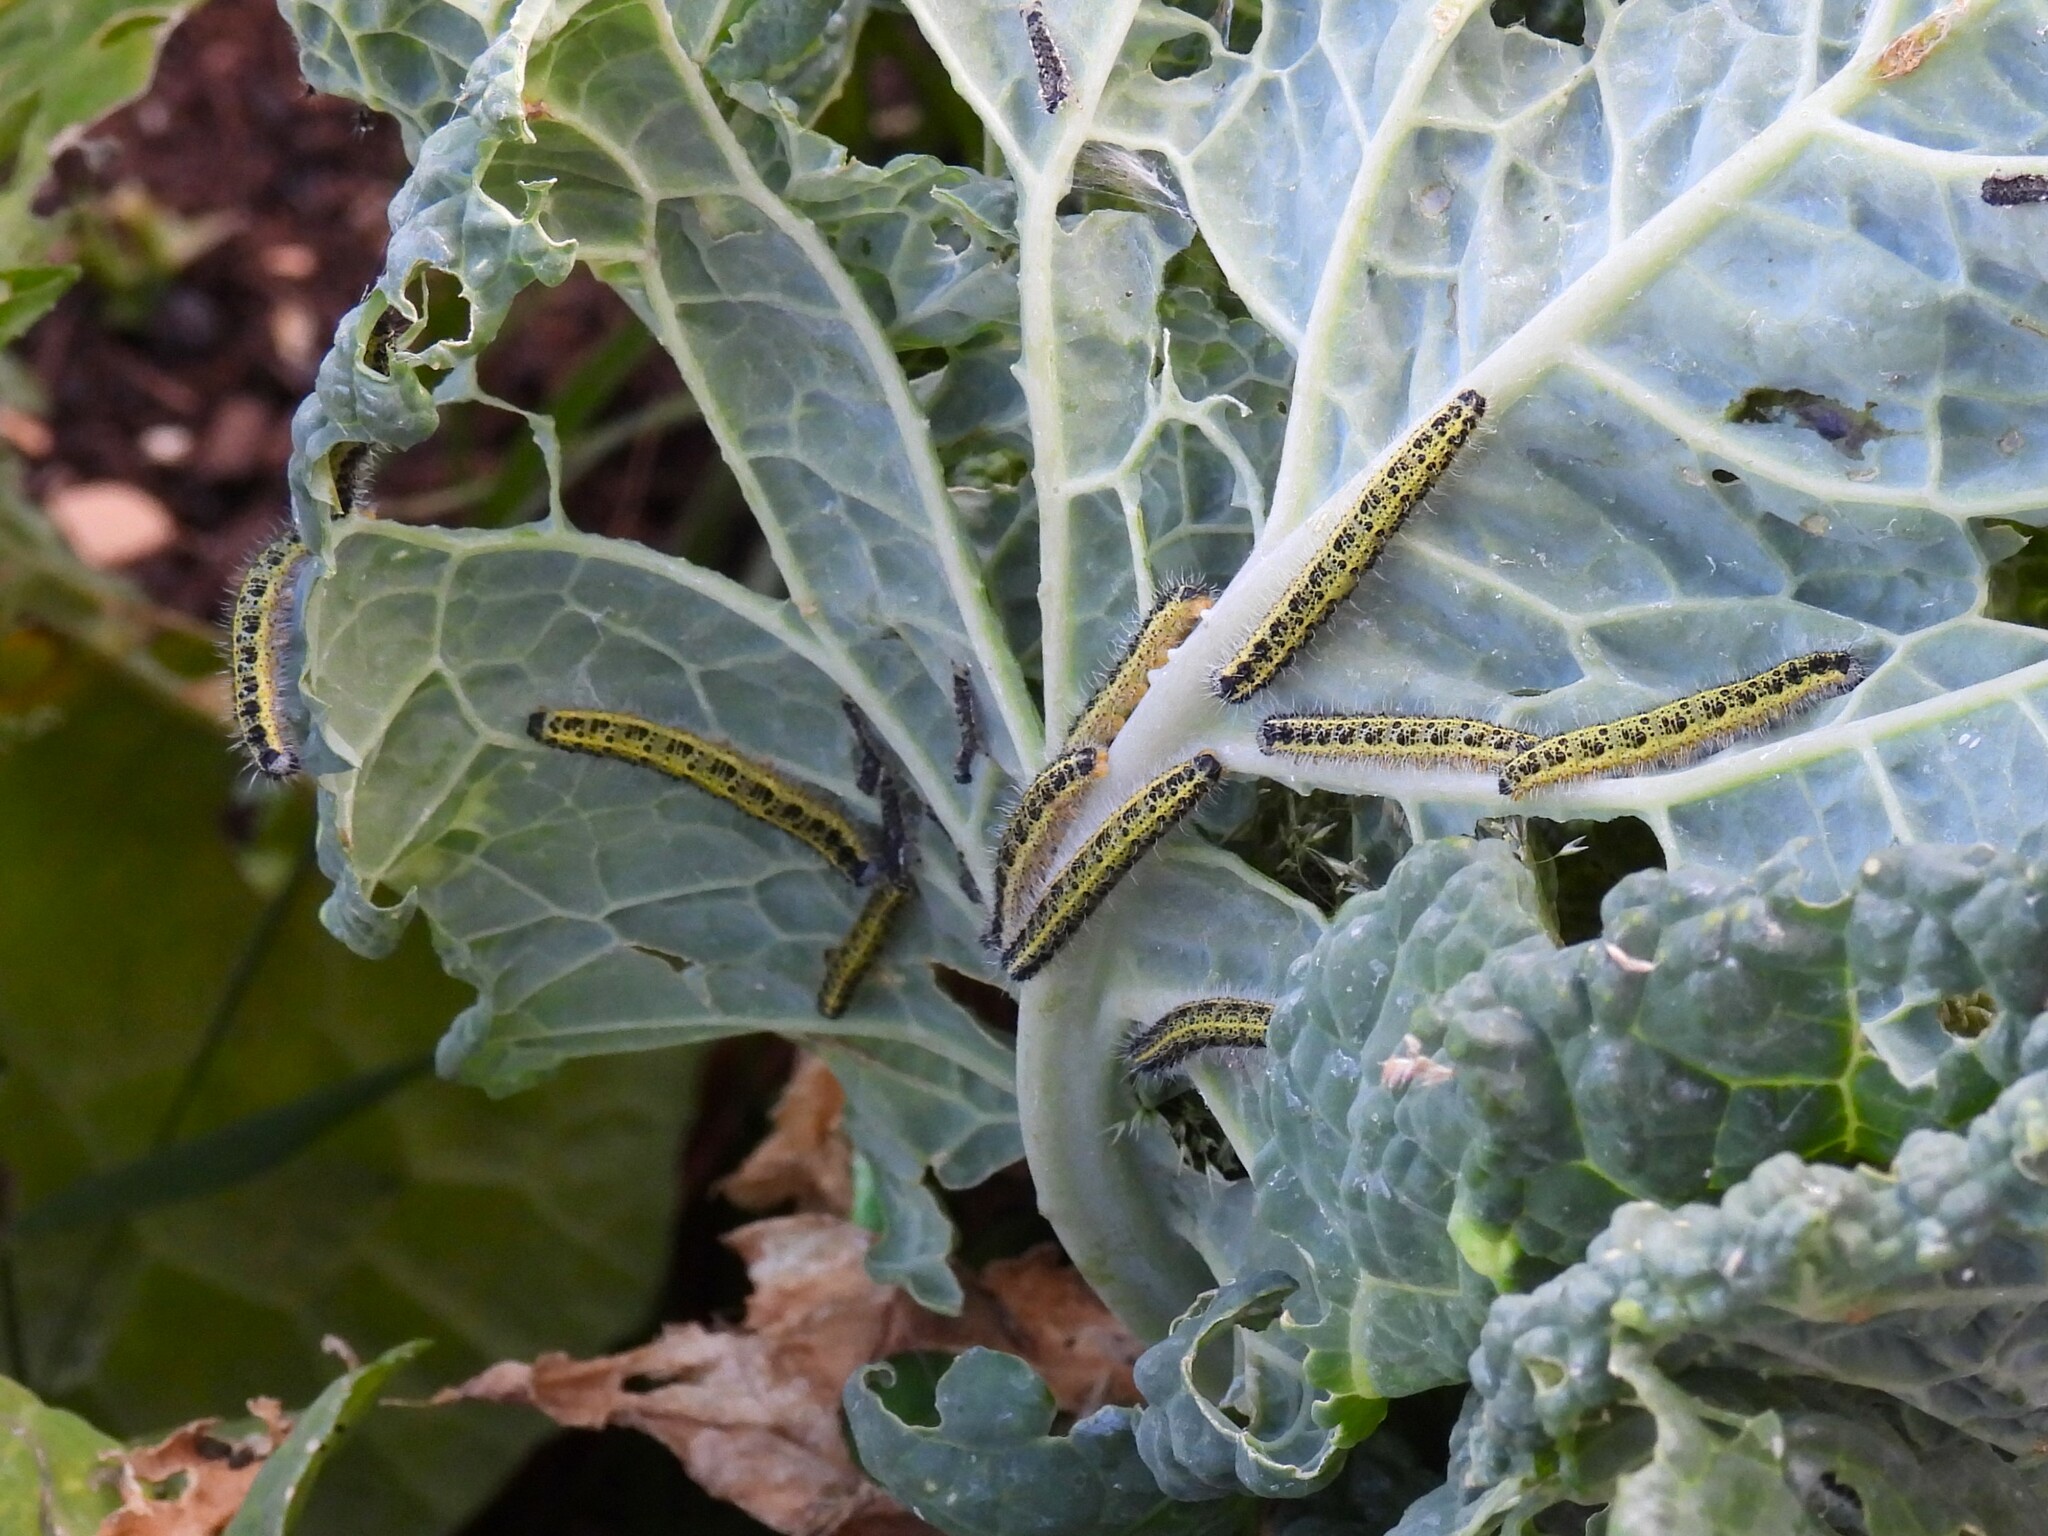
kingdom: Animalia
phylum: Arthropoda
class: Insecta
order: Lepidoptera
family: Pieridae
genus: Pieris
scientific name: Pieris brassicae
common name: Large white
